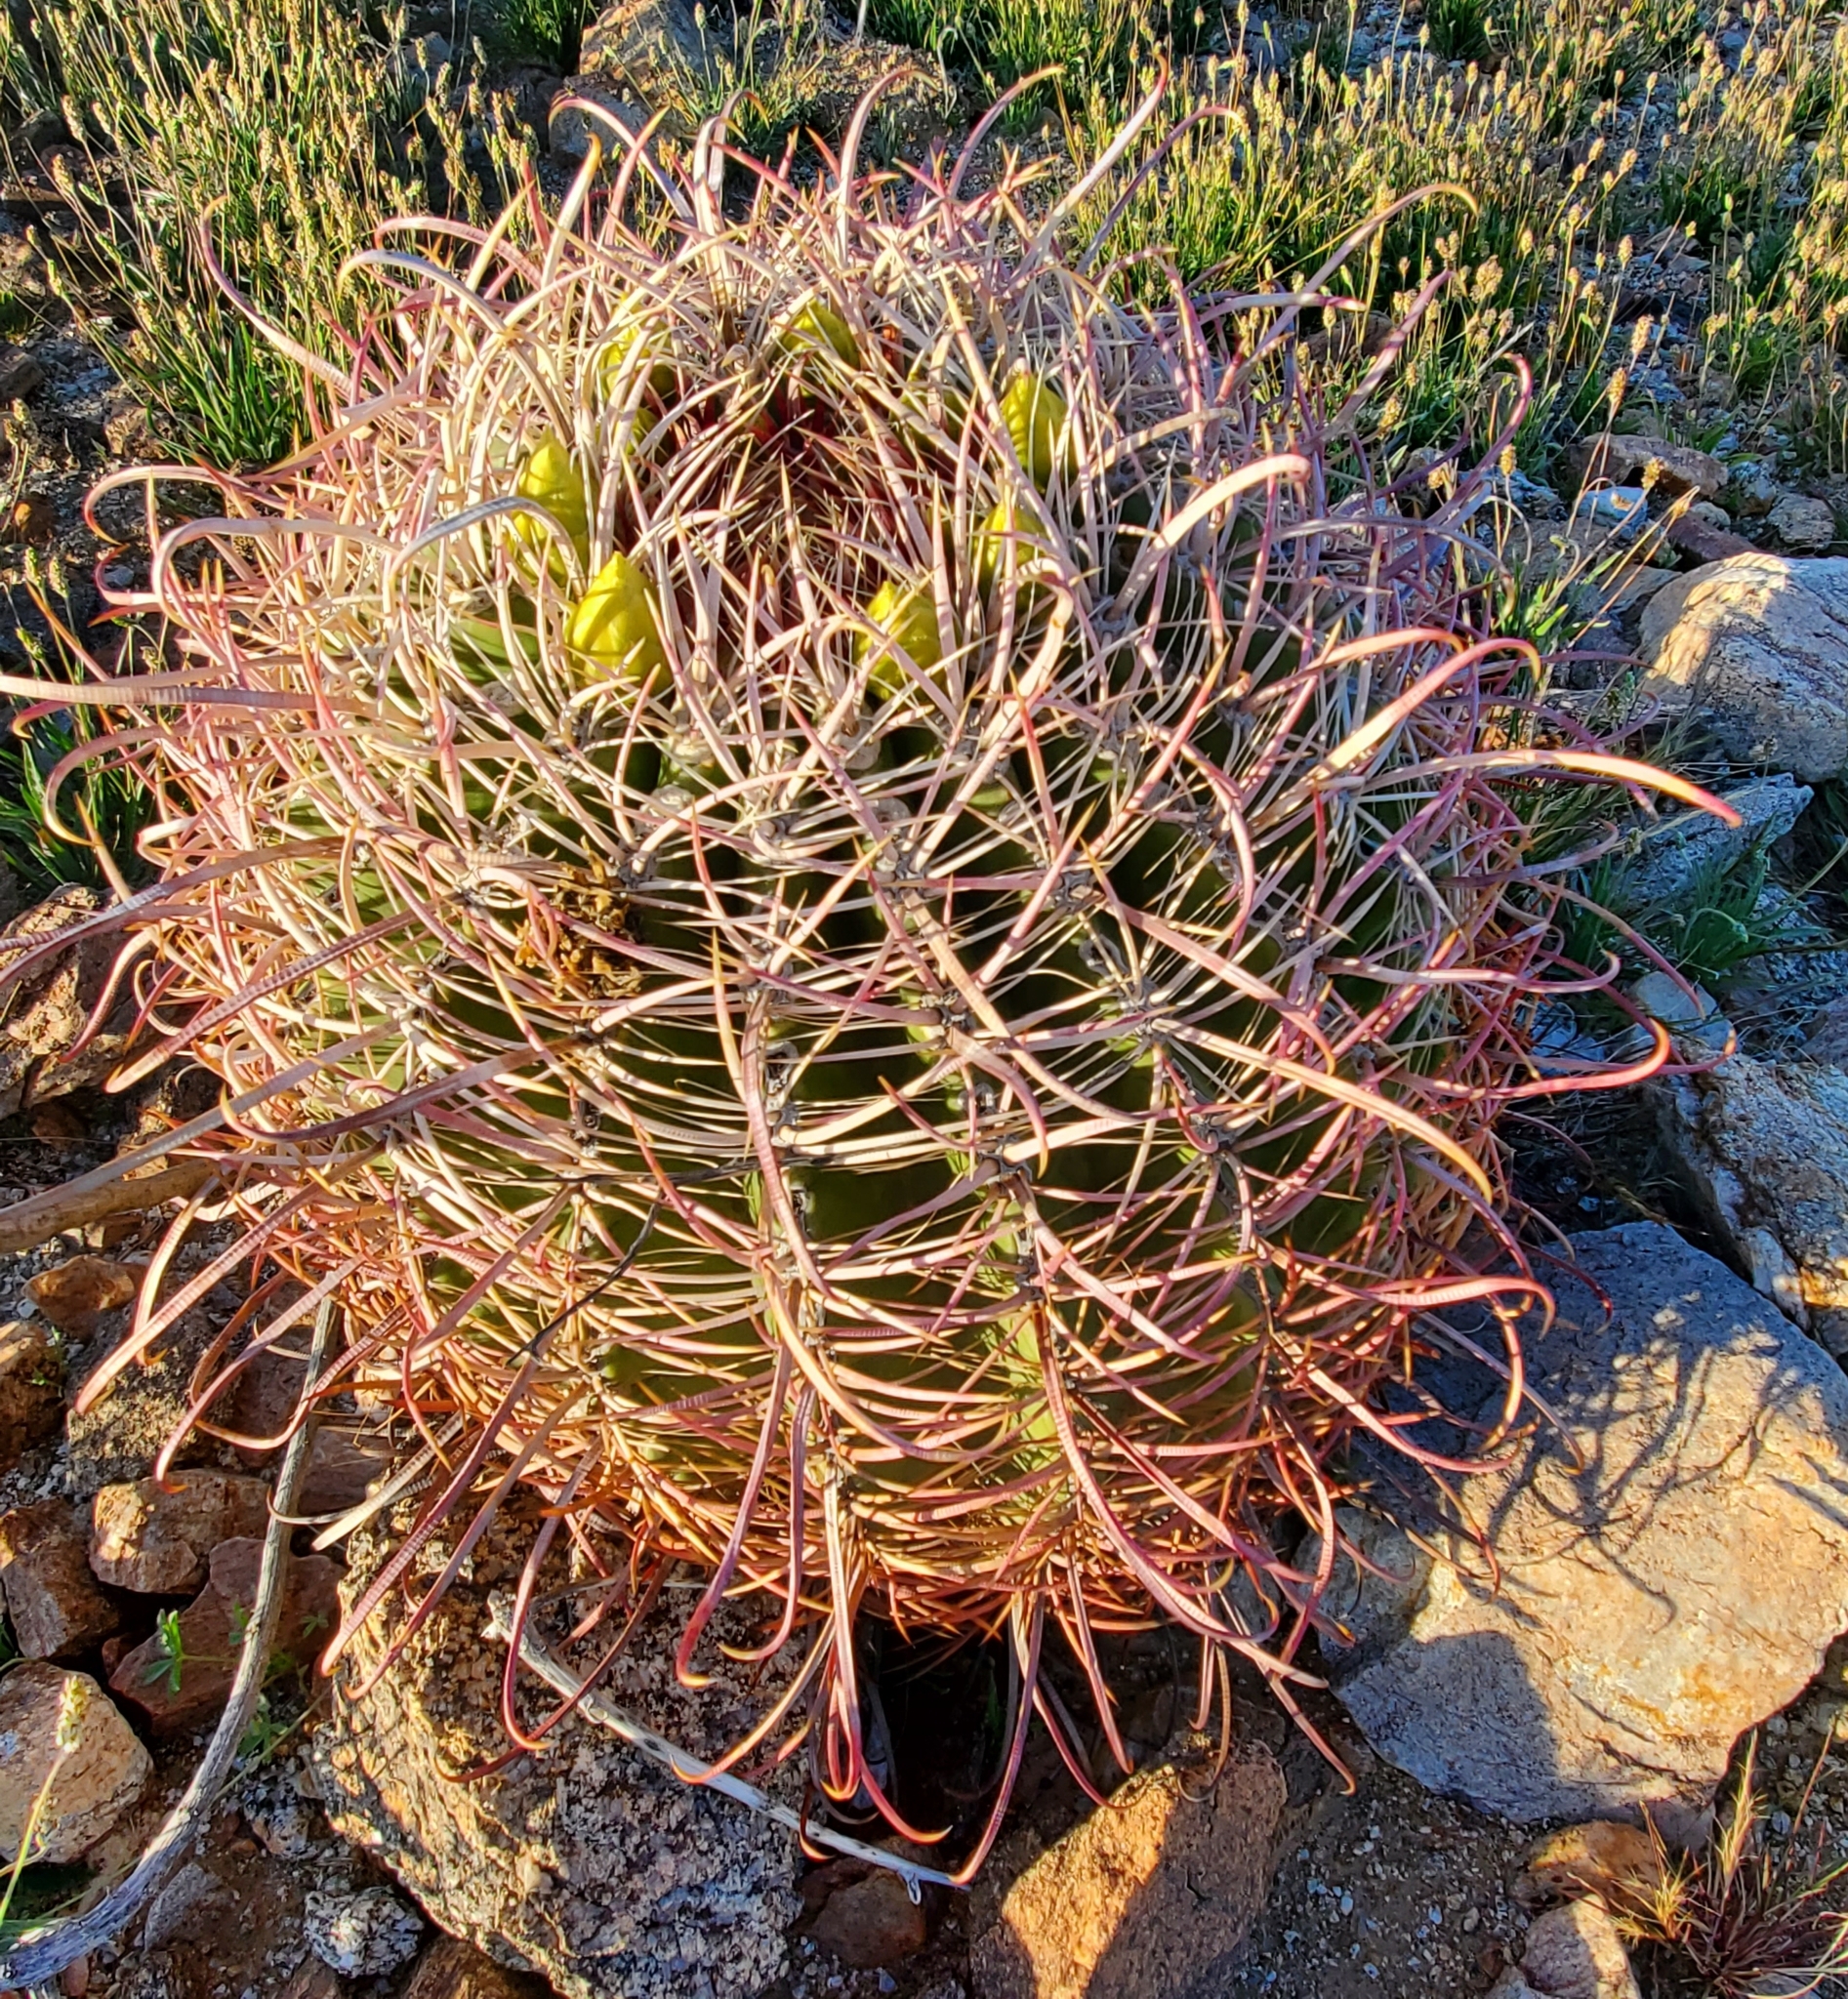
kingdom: Plantae
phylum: Tracheophyta
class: Magnoliopsida
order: Caryophyllales
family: Cactaceae
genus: Ferocactus
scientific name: Ferocactus cylindraceus
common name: California barrel cactus
